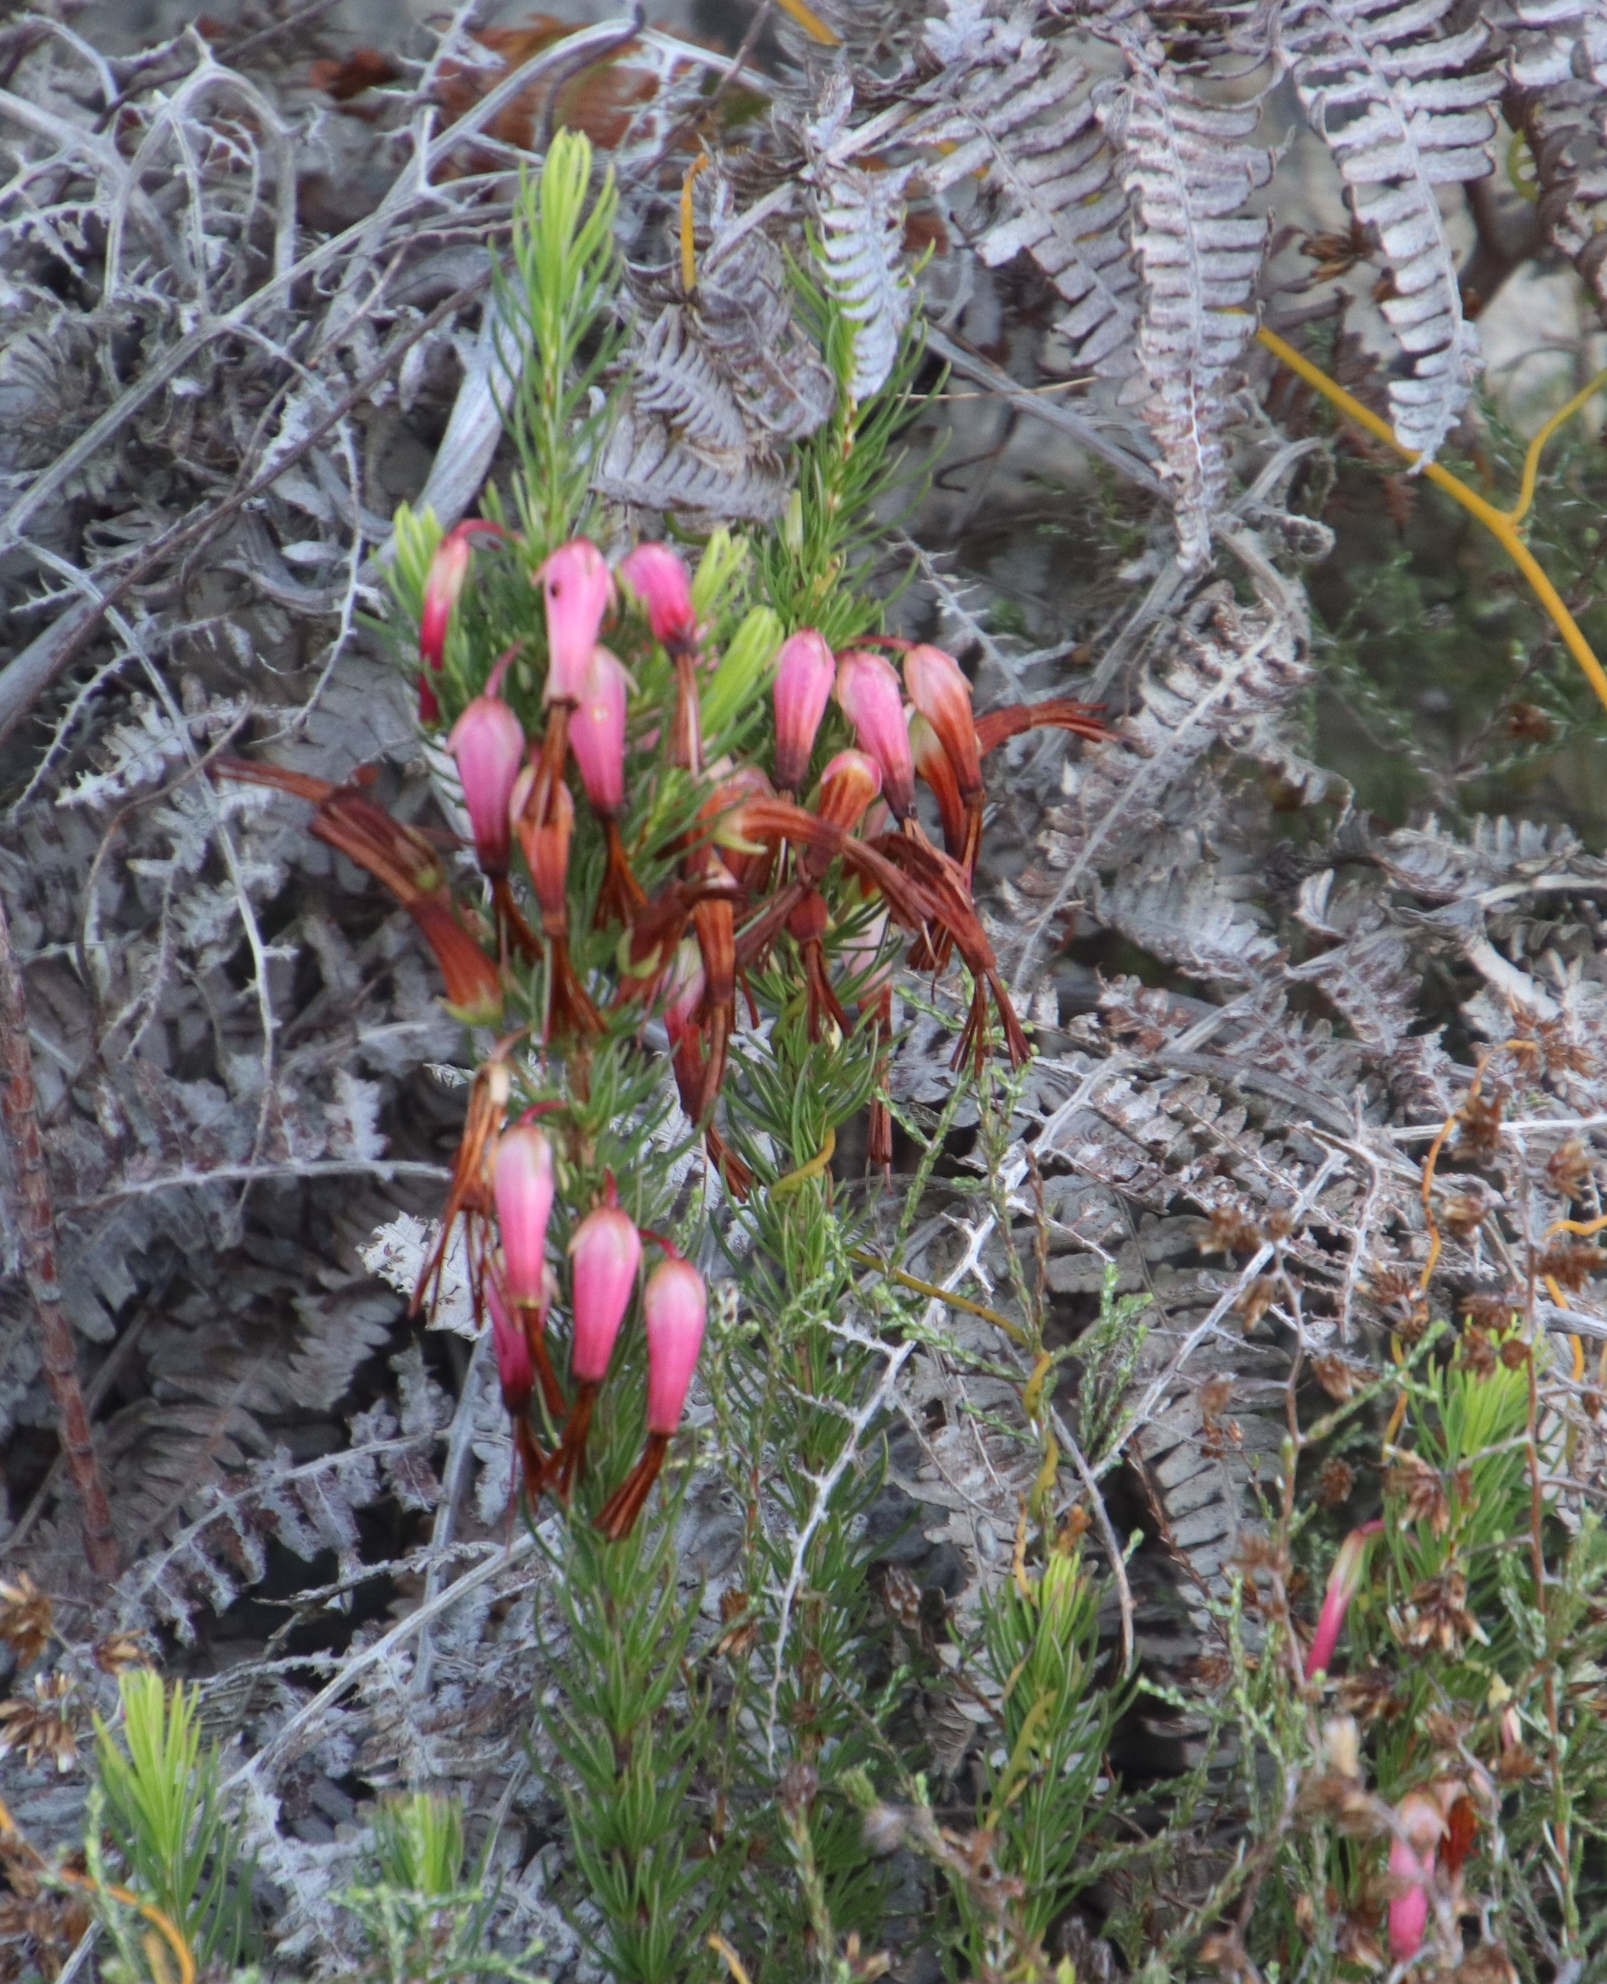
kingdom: Plantae
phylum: Tracheophyta
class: Magnoliopsida
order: Ericales
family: Ericaceae
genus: Erica
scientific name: Erica plukenetii
